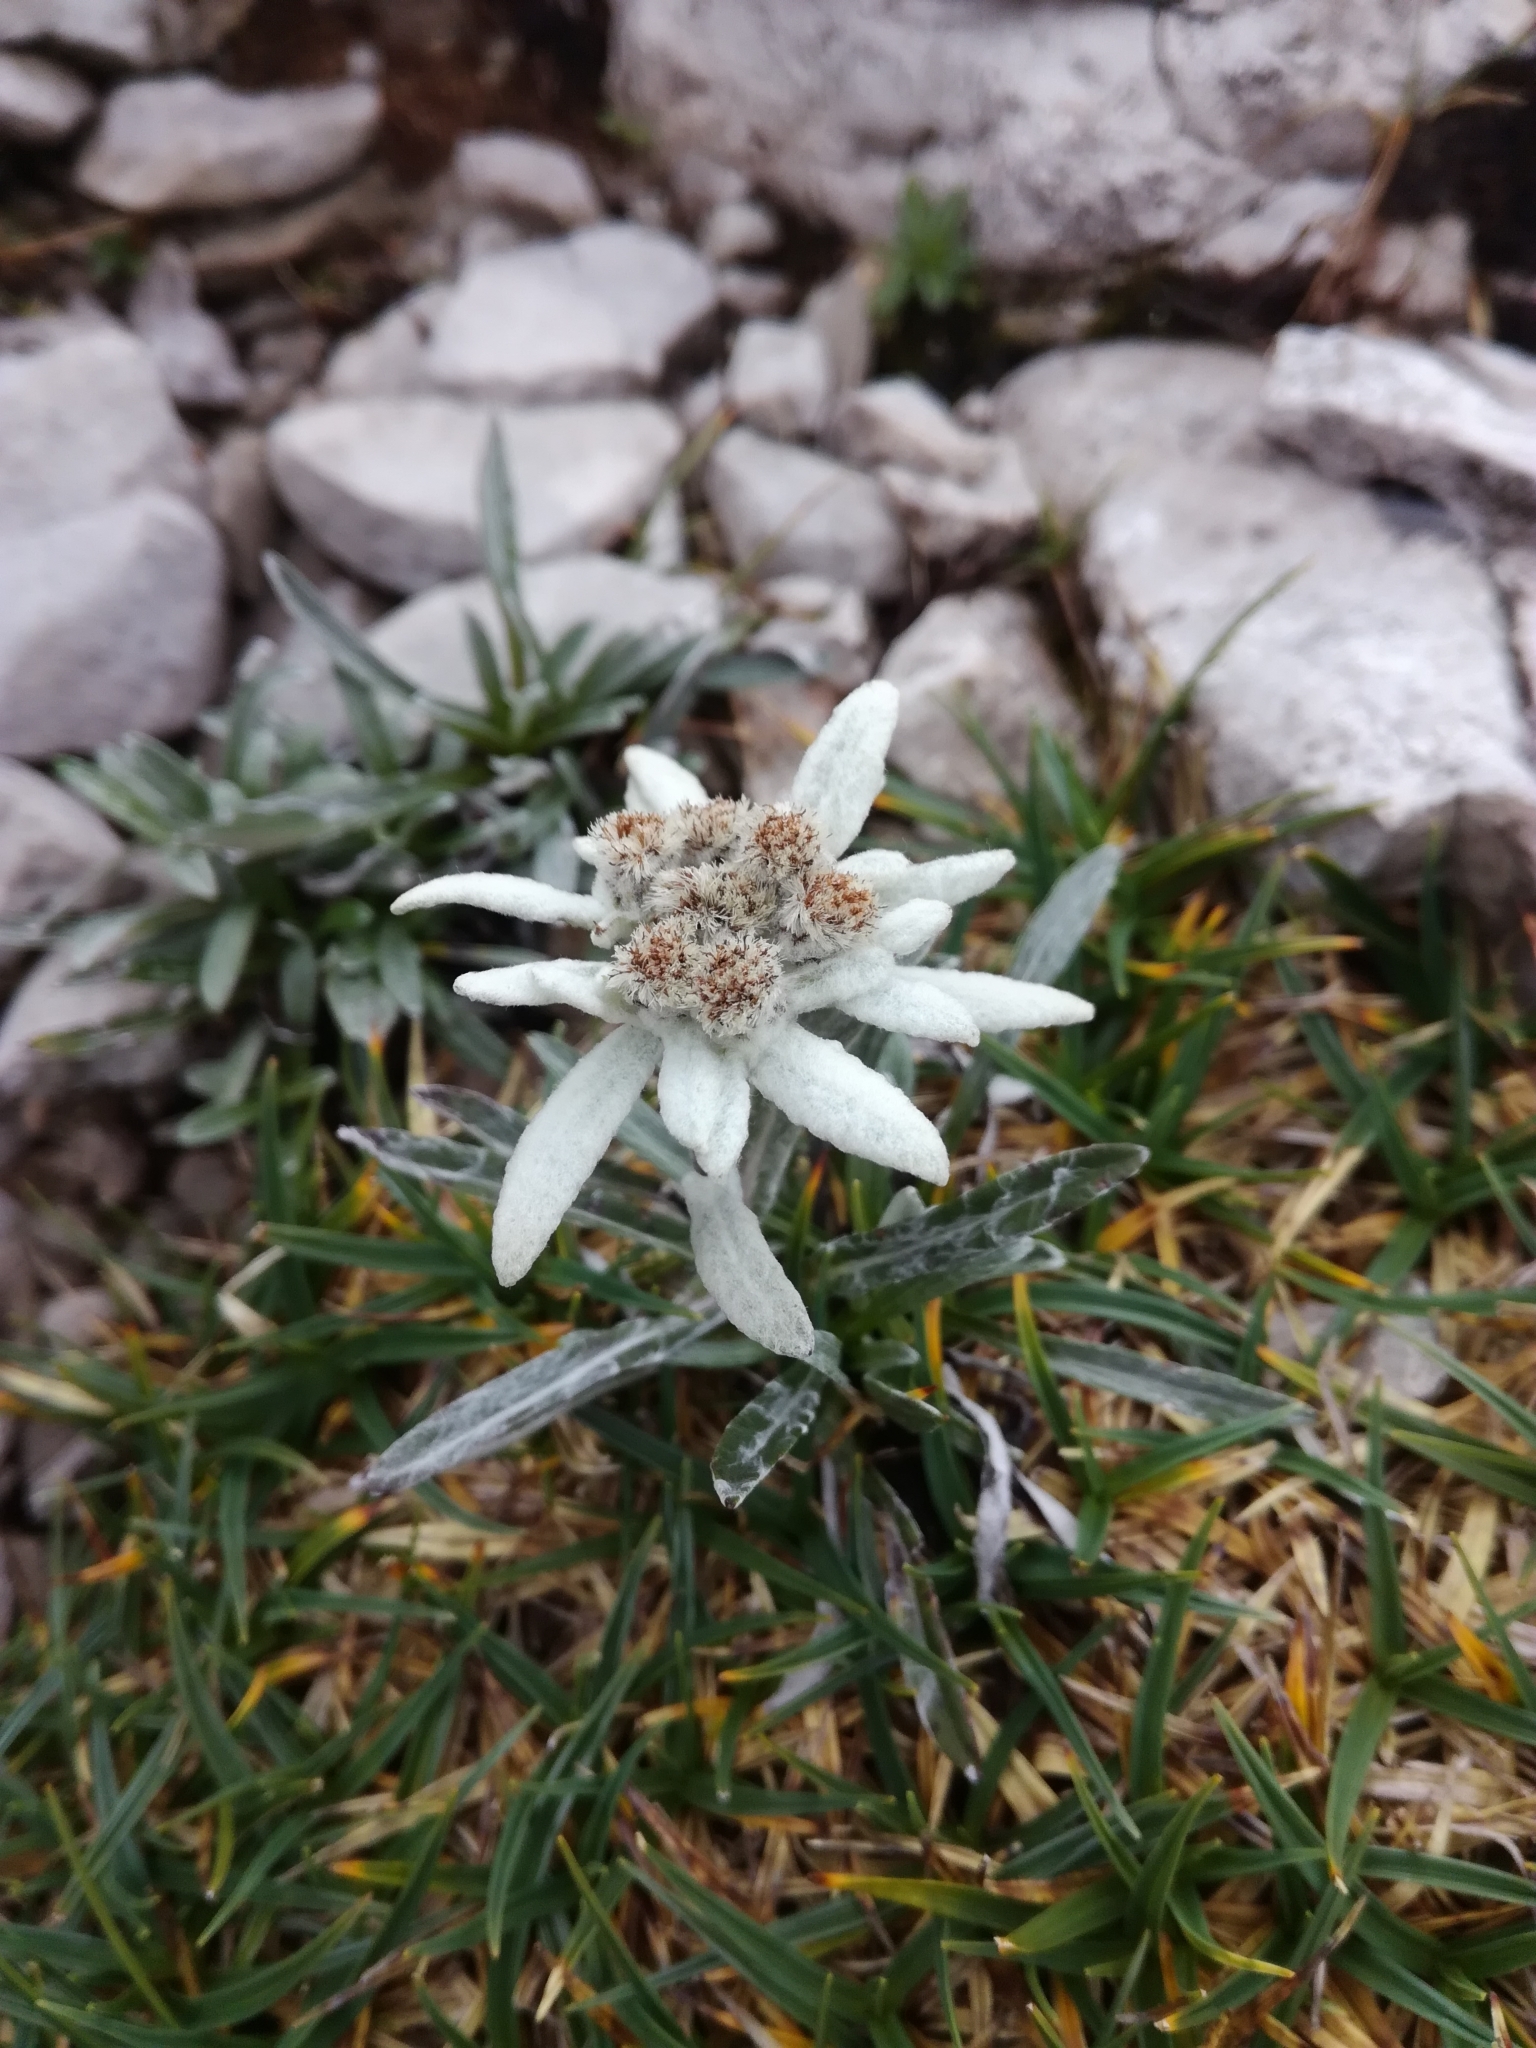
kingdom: Plantae
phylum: Tracheophyta
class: Magnoliopsida
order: Asterales
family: Asteraceae
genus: Leontopodium
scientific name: Leontopodium nivale
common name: Edelweiss
